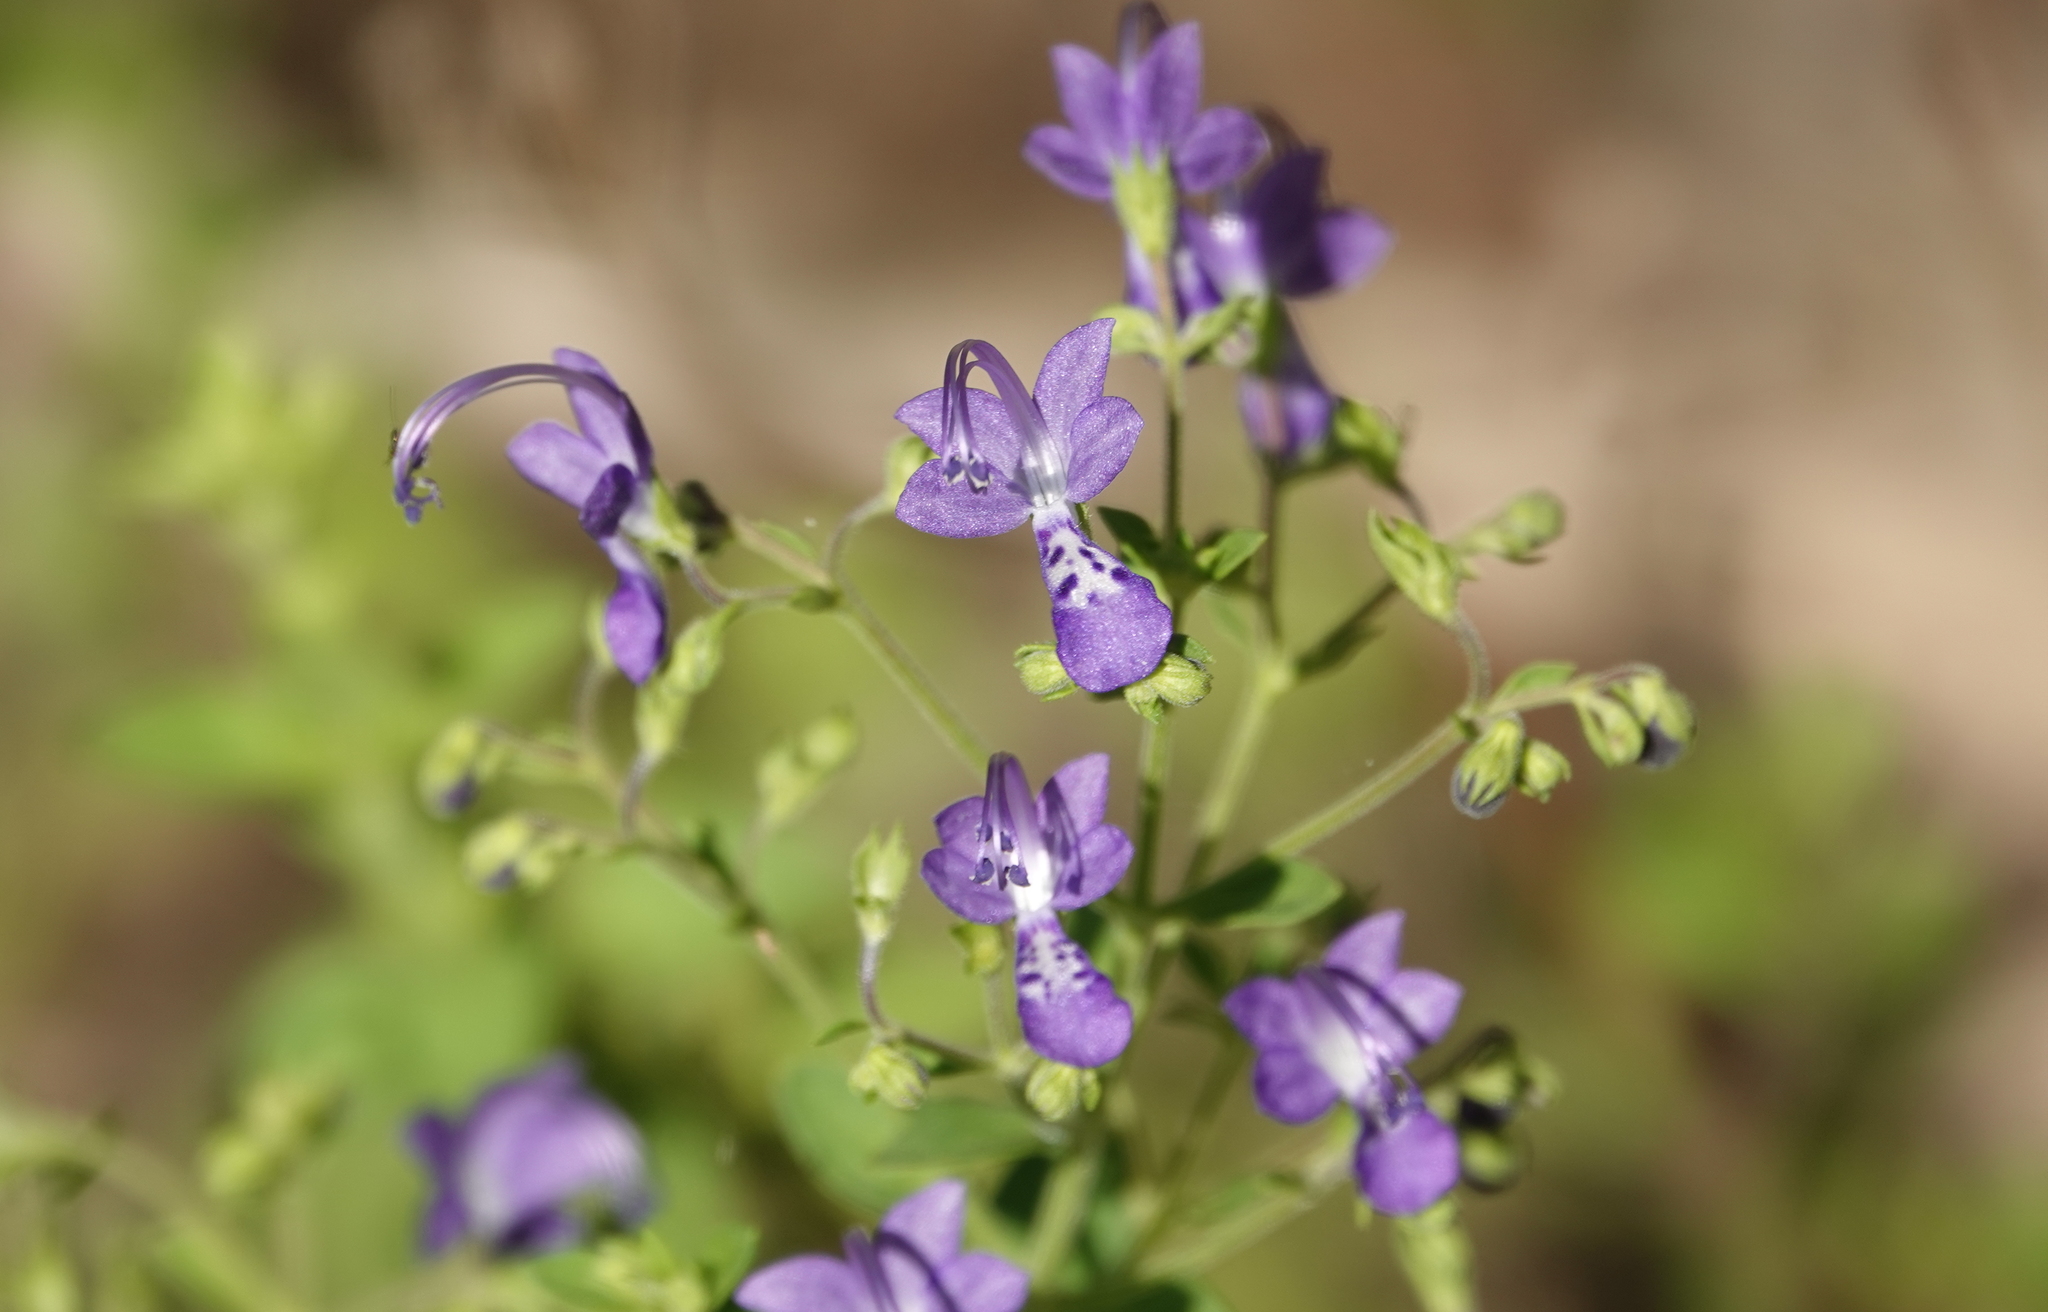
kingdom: Plantae
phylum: Tracheophyta
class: Magnoliopsida
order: Lamiales
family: Lamiaceae
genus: Trichostema
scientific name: Trichostema
